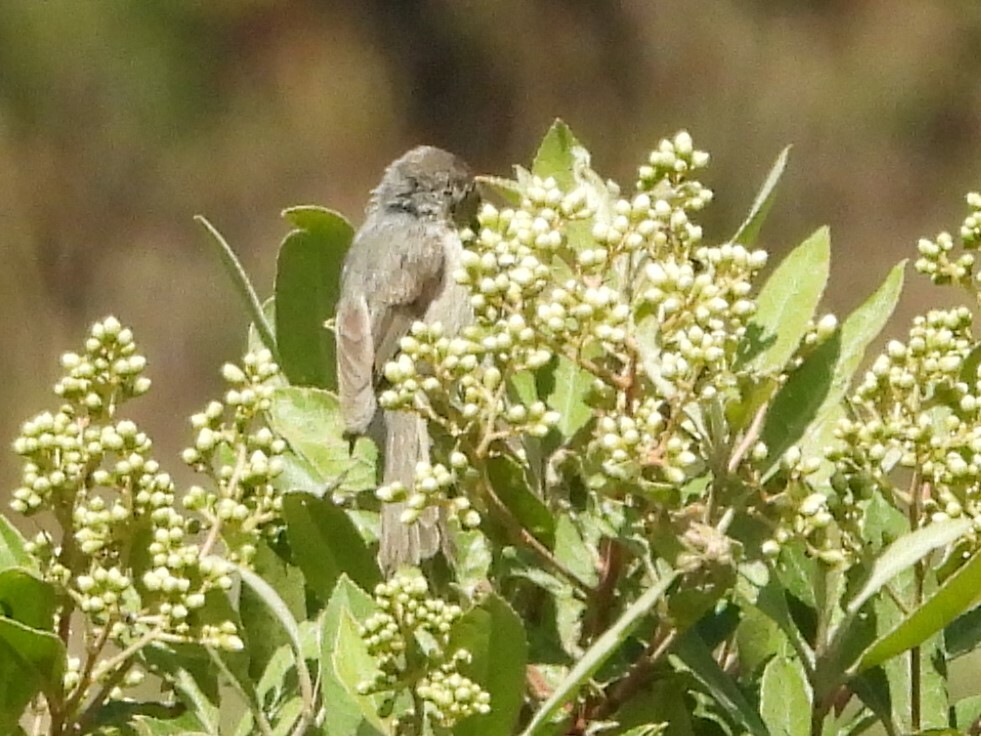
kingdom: Animalia
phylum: Chordata
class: Aves
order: Passeriformes
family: Aegithalidae
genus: Psaltriparus
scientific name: Psaltriparus minimus
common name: American bushtit
